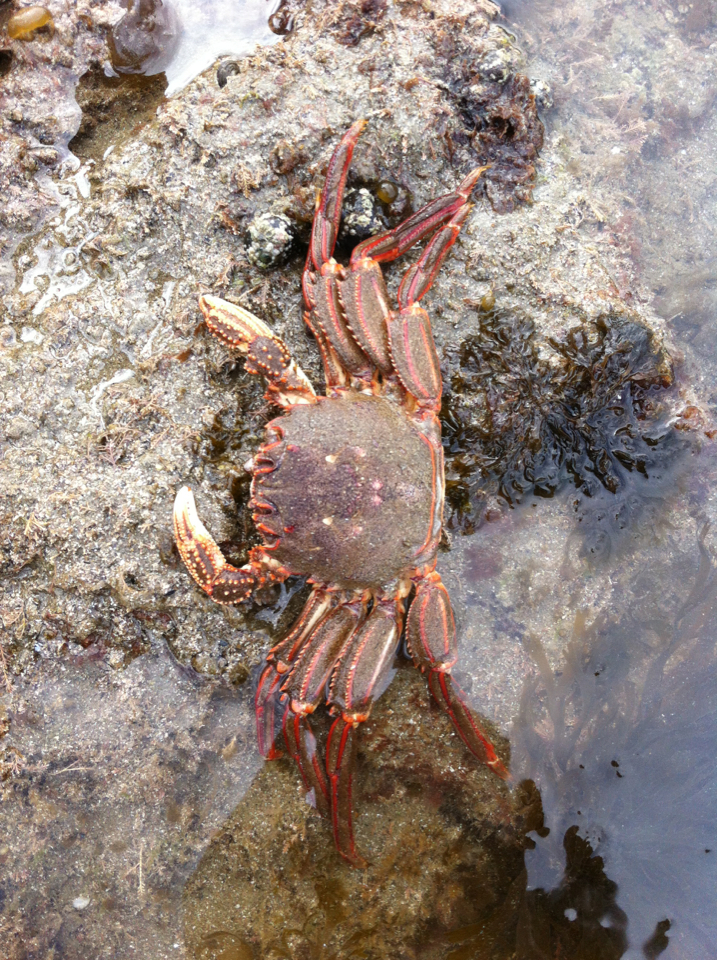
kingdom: Animalia
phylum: Arthropoda
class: Malacostraca
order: Decapoda
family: Plagusiidae
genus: Guinusia
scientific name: Guinusia chabrus
